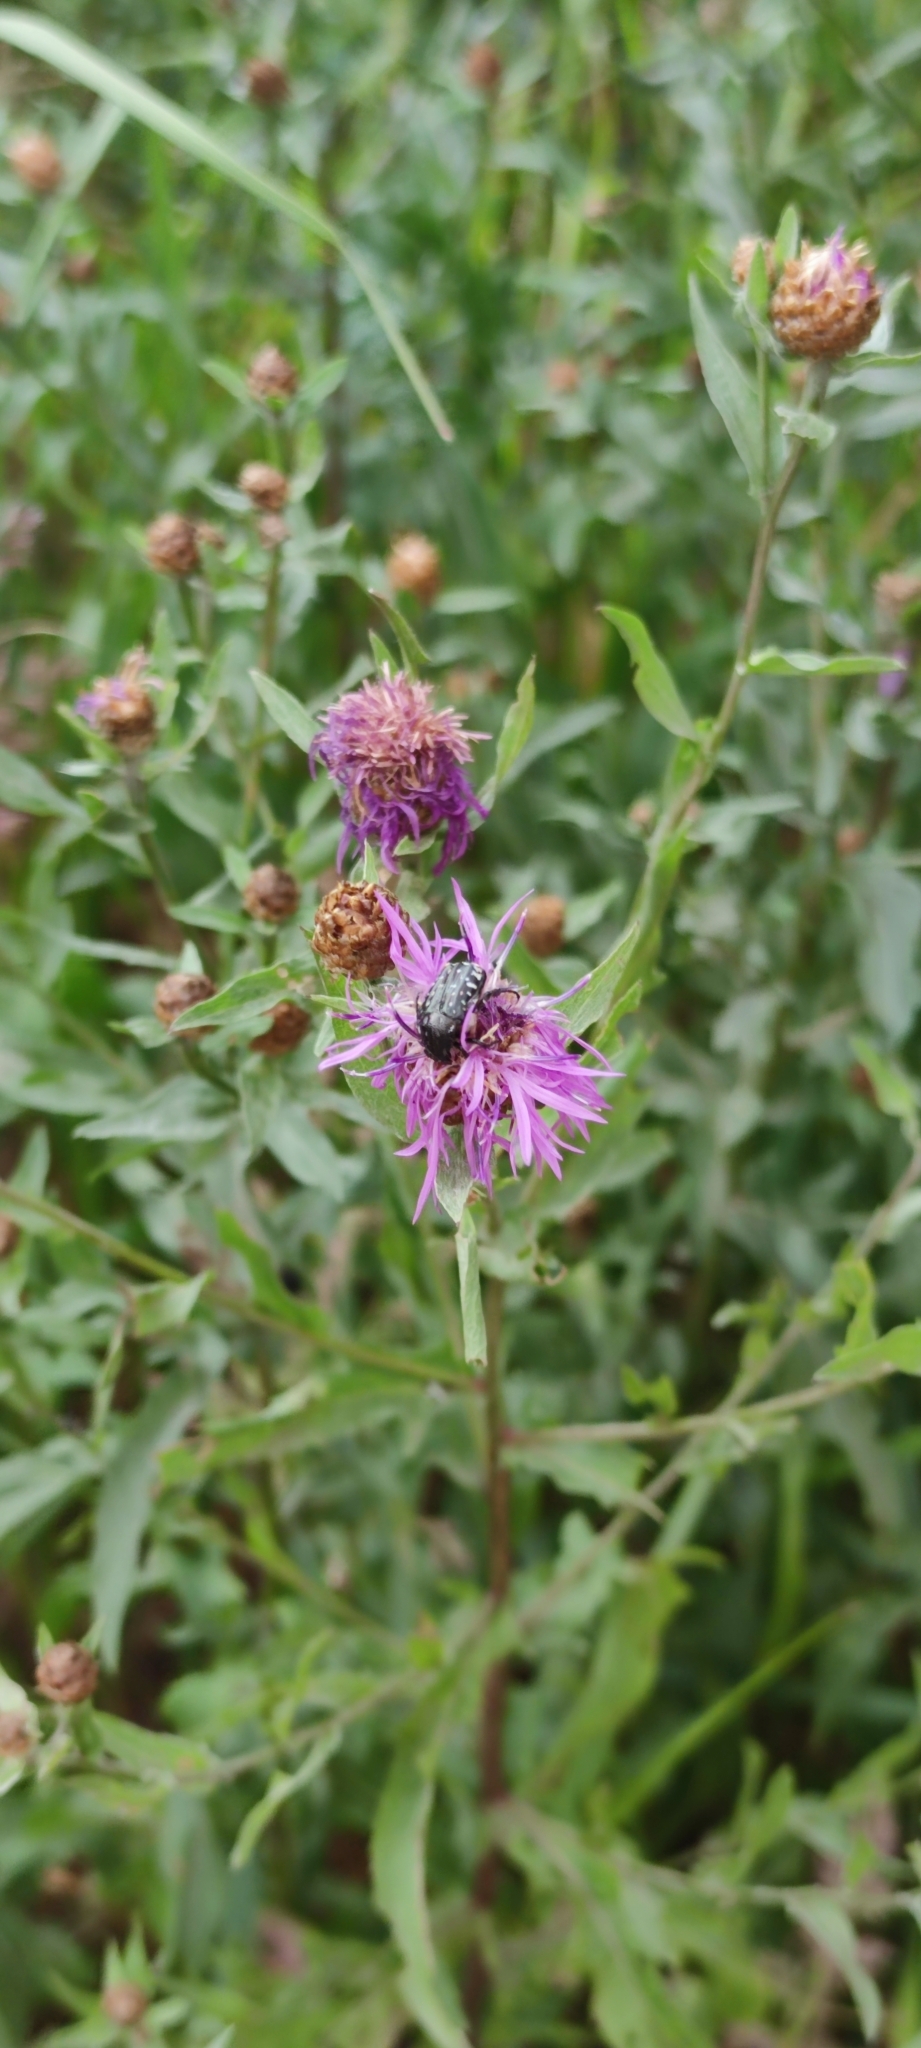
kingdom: Animalia
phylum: Arthropoda
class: Insecta
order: Coleoptera
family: Scarabaeidae
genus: Oxythyrea
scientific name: Oxythyrea funesta
